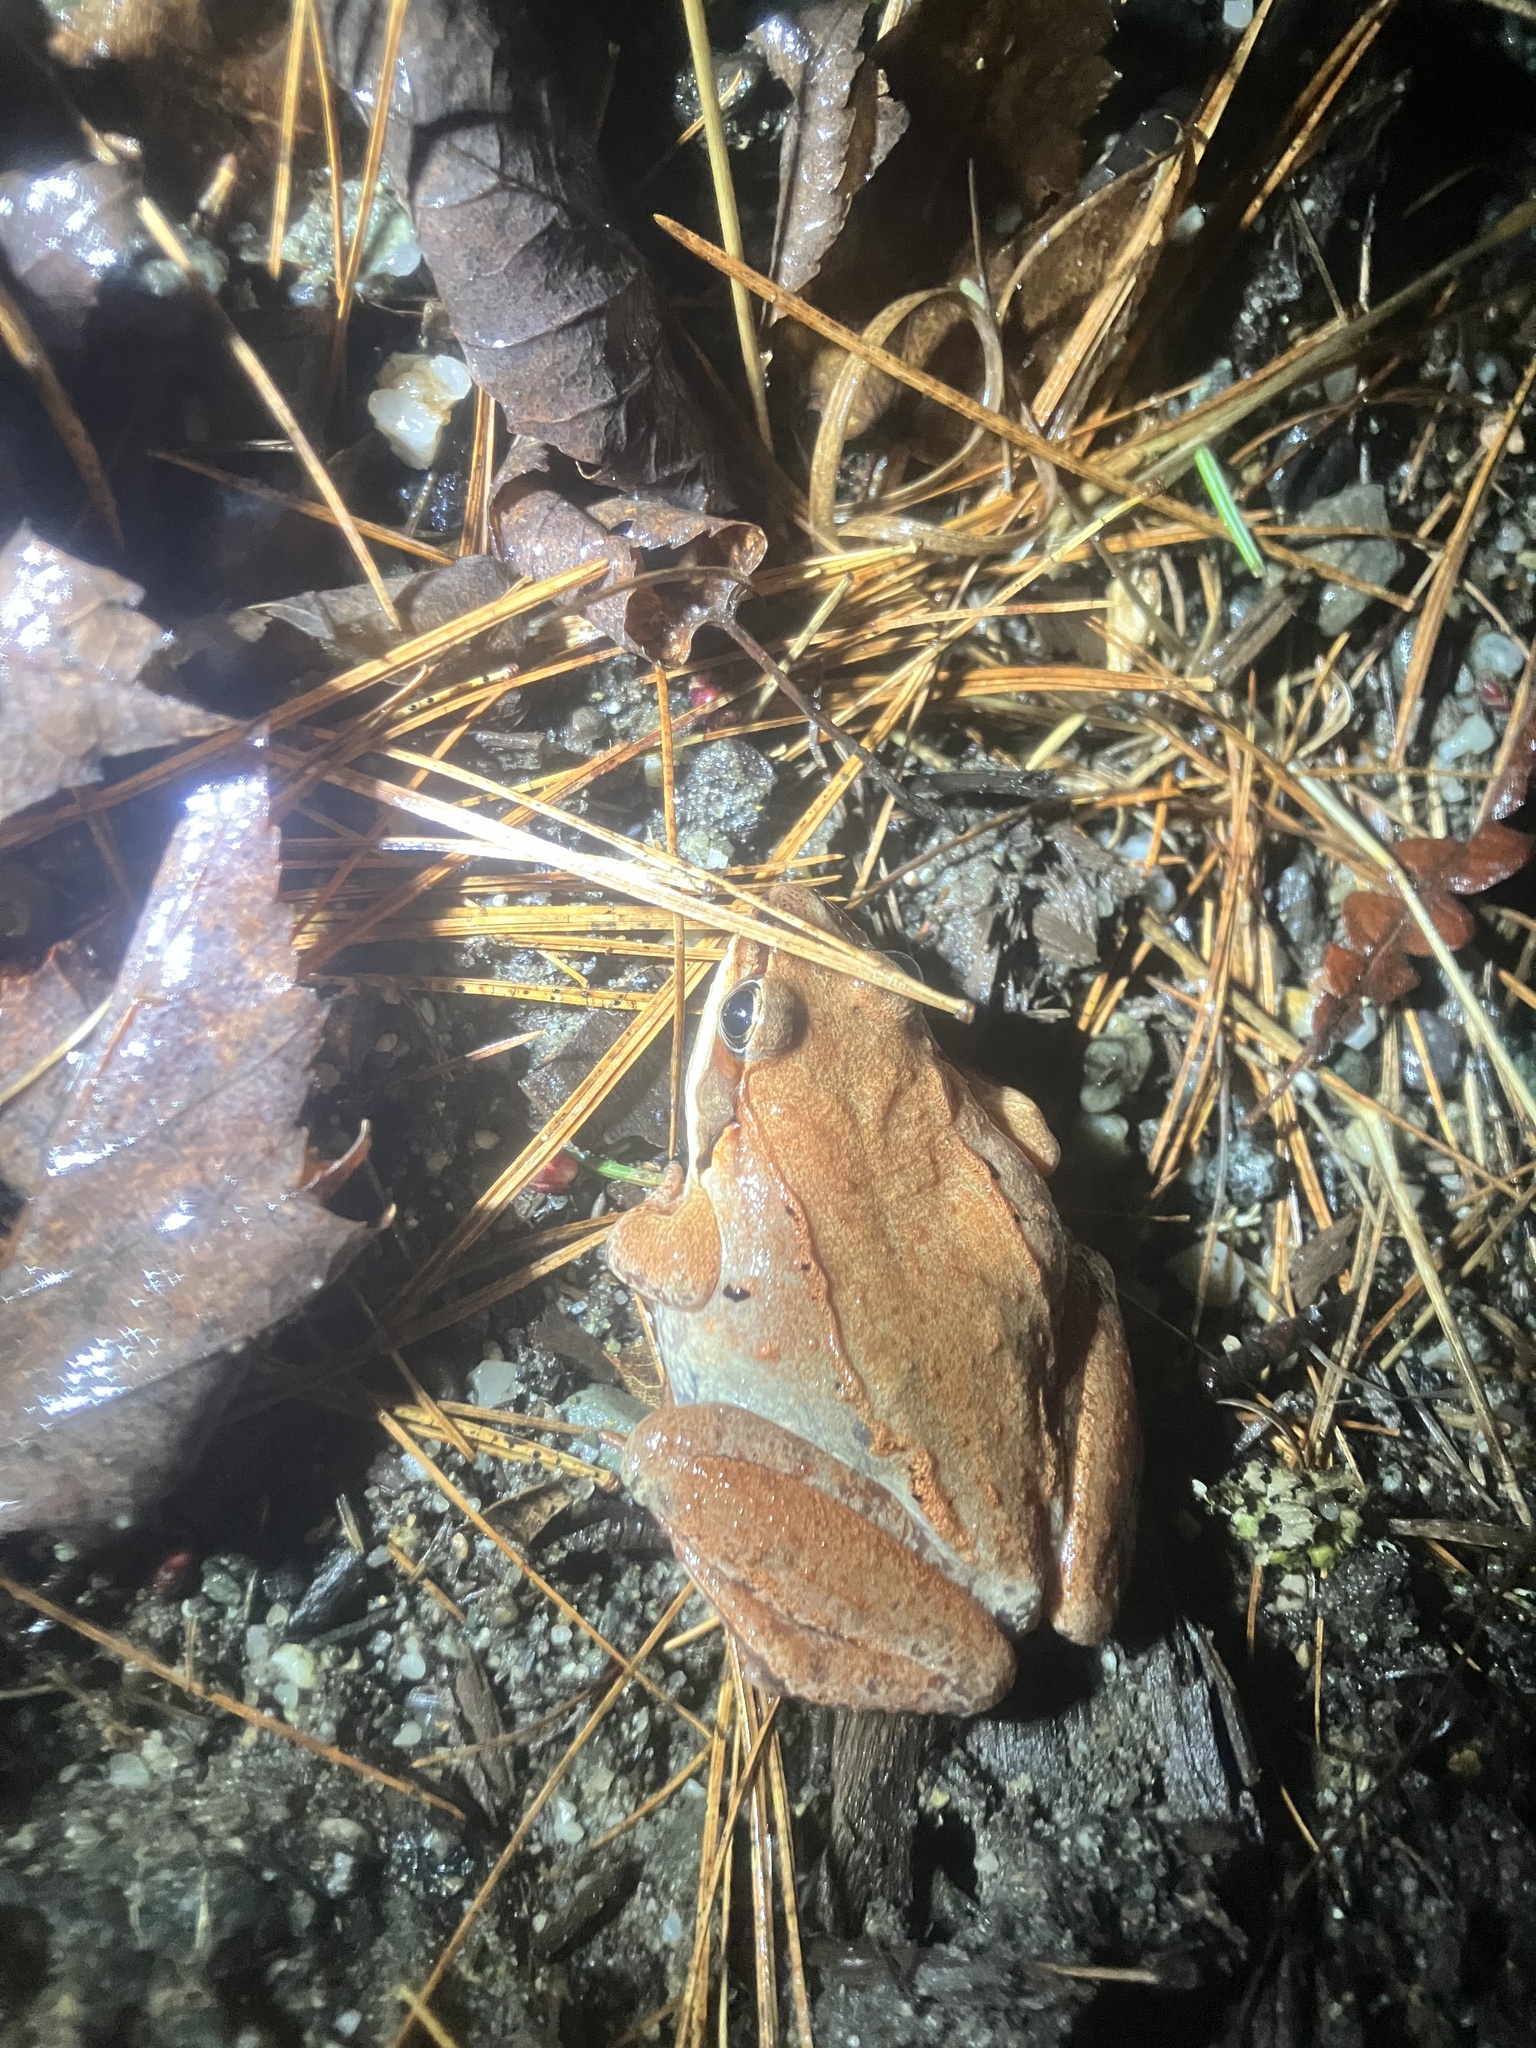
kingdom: Animalia
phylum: Chordata
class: Amphibia
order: Anura
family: Ranidae
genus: Lithobates
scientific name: Lithobates sylvaticus
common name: Wood frog
